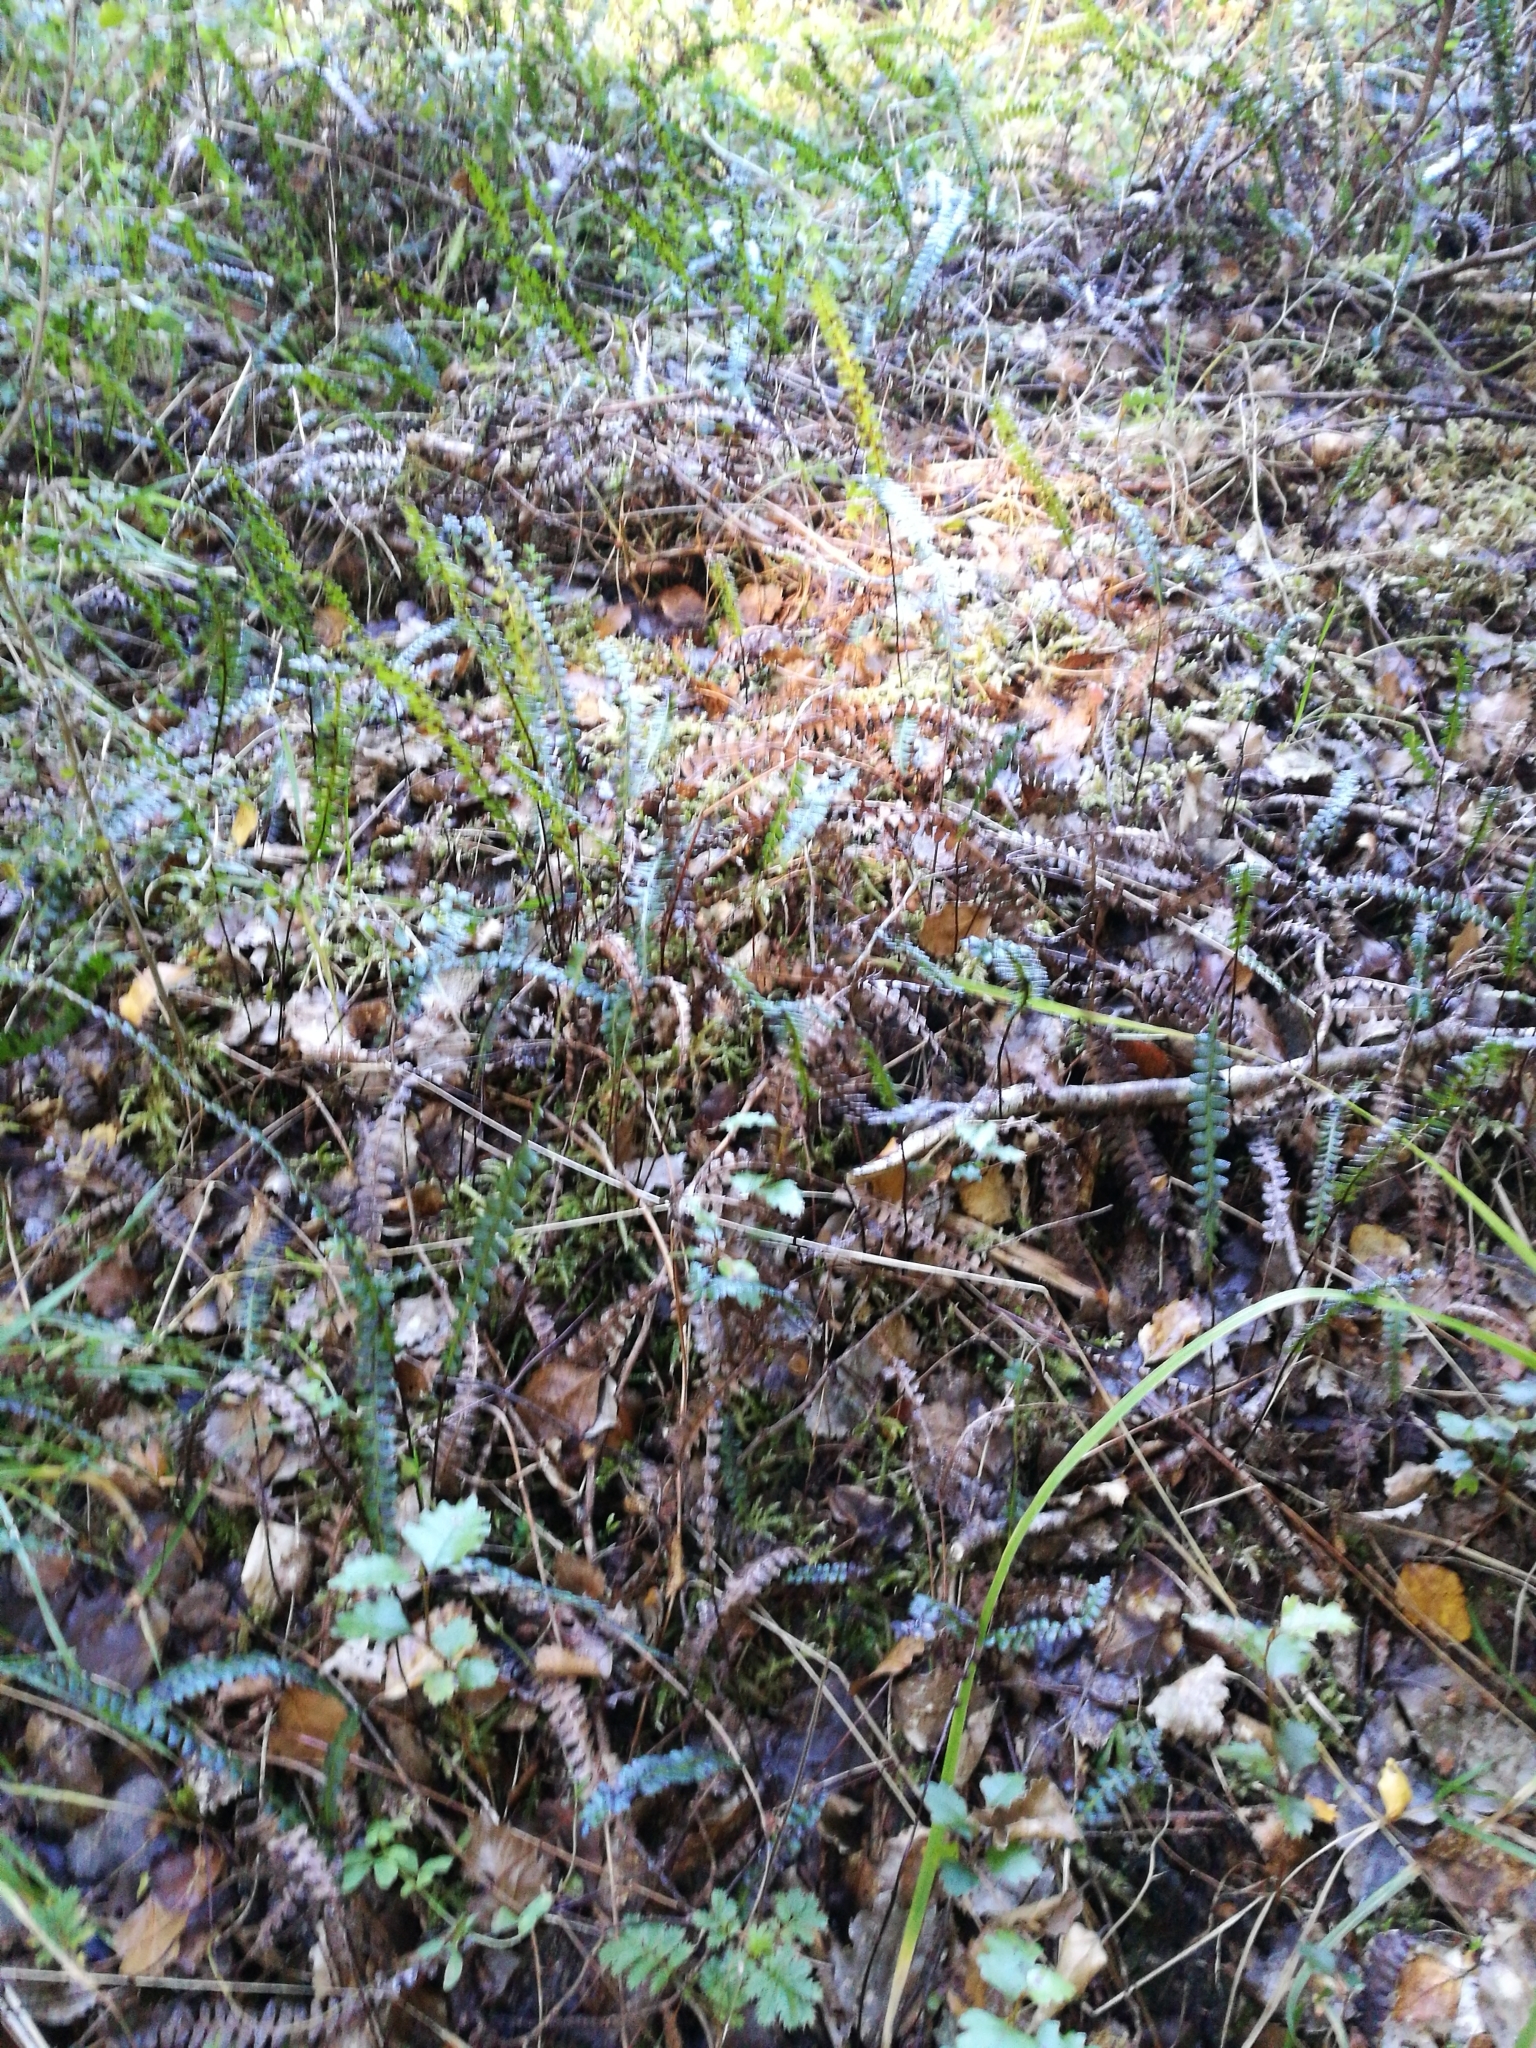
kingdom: Plantae
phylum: Tracheophyta
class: Polypodiopsida
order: Polypodiales
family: Blechnaceae
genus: Austroblechnum
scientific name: Austroblechnum penna-marina
